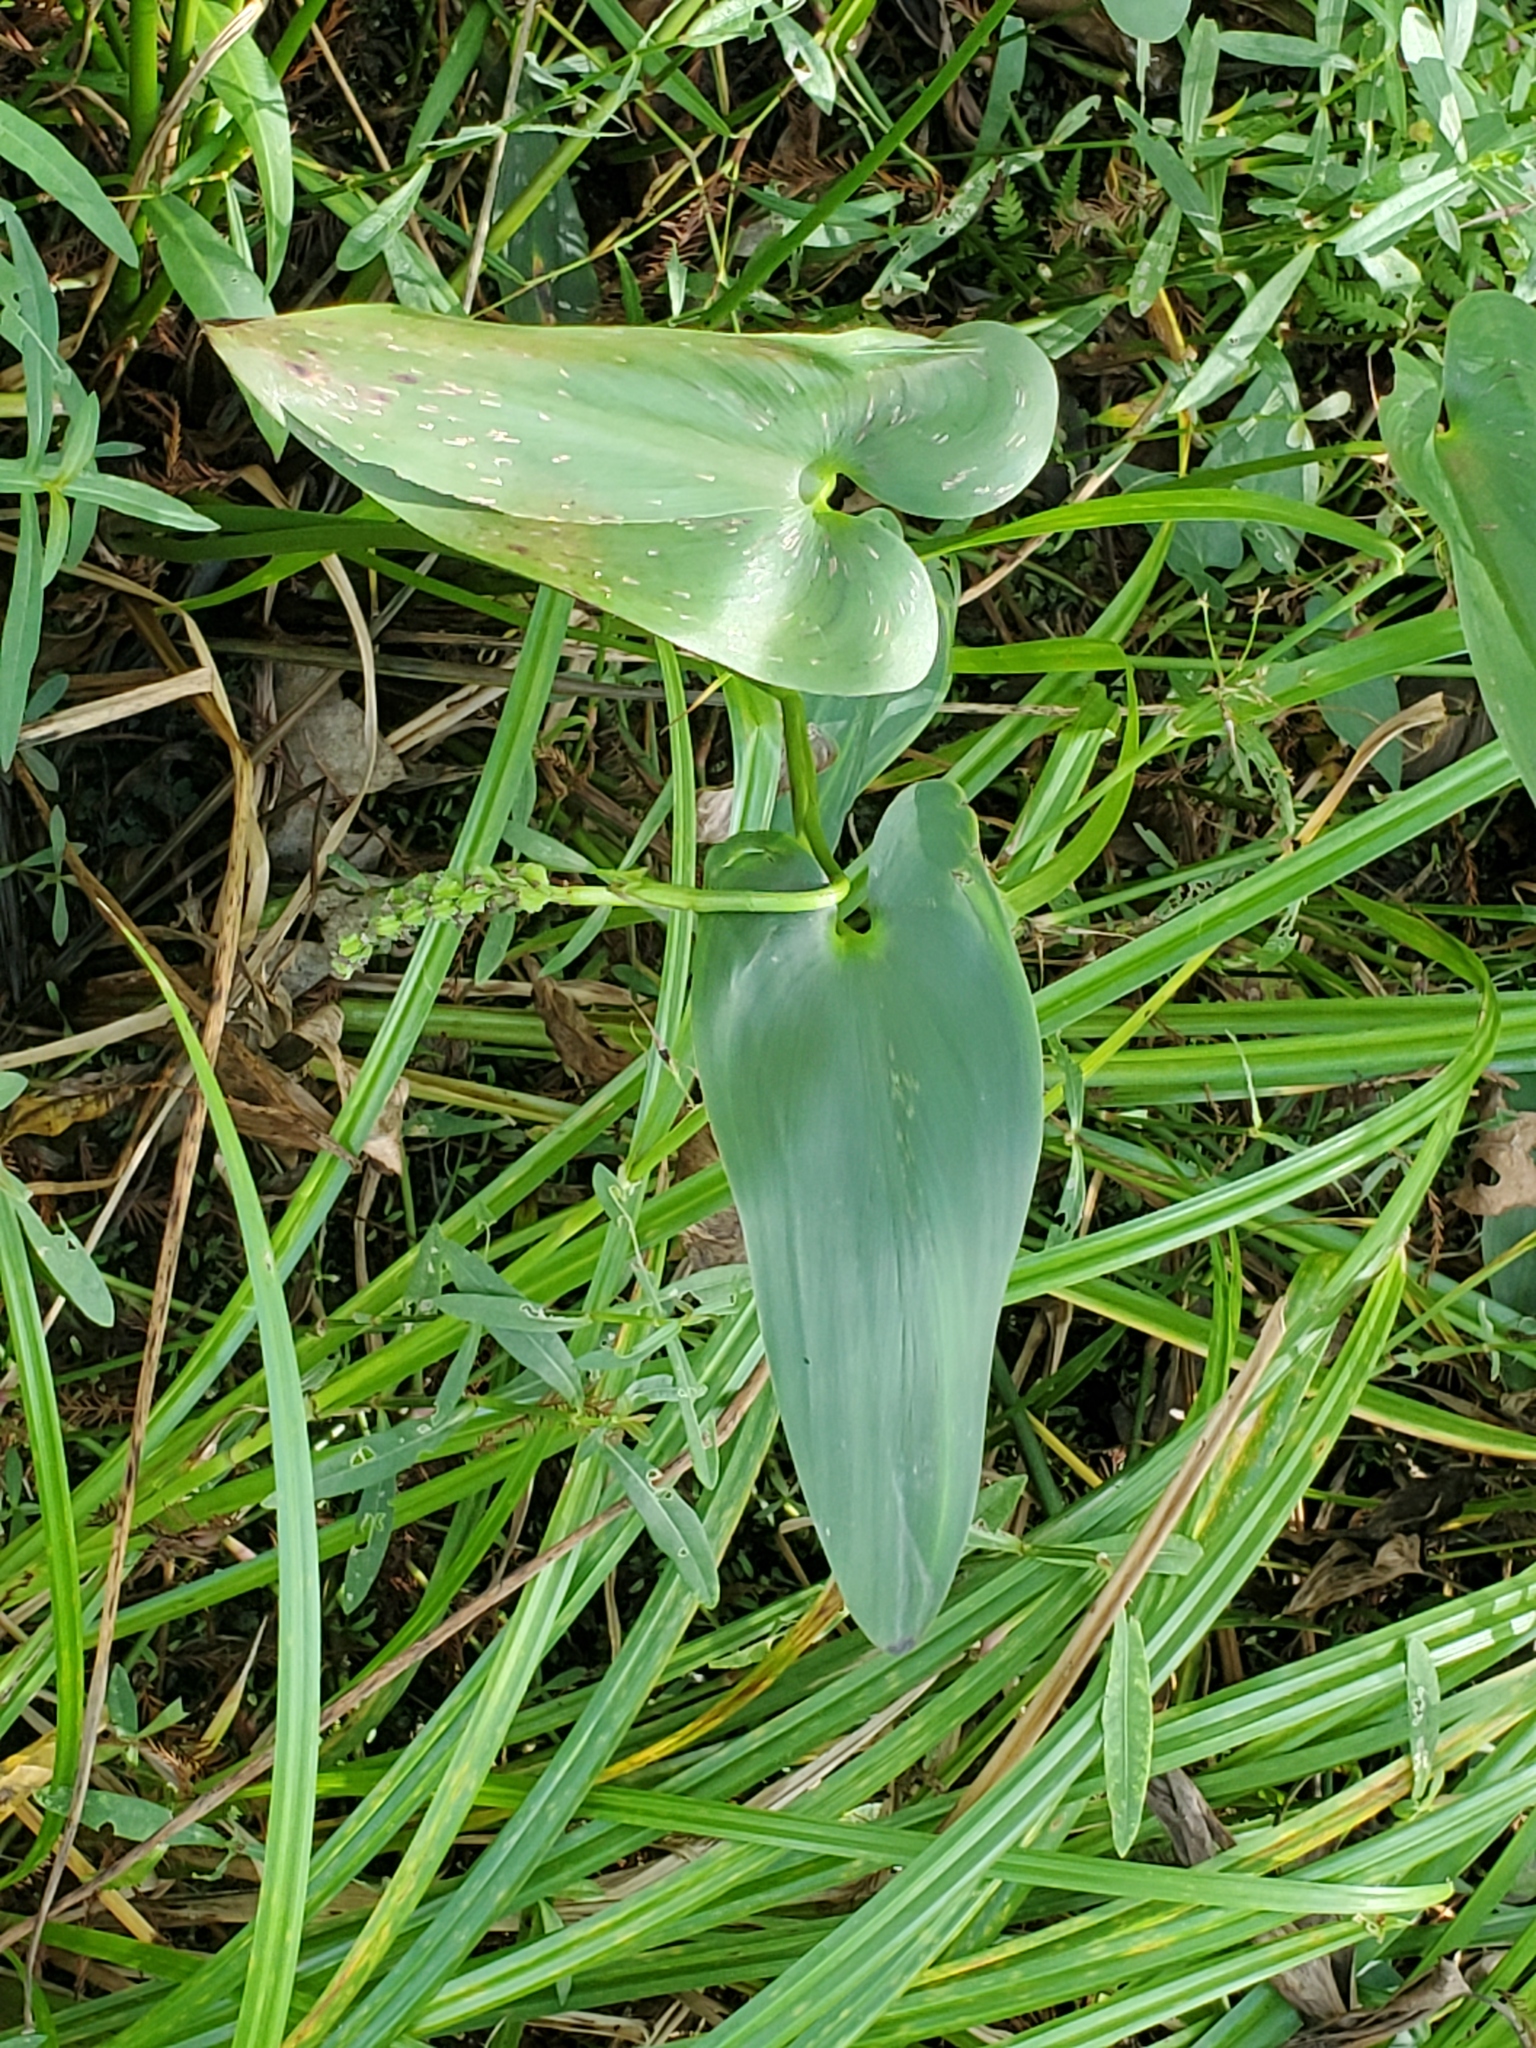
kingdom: Plantae
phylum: Tracheophyta
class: Liliopsida
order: Commelinales
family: Pontederiaceae
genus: Pontederia
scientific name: Pontederia cordata
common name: Pickerelweed
